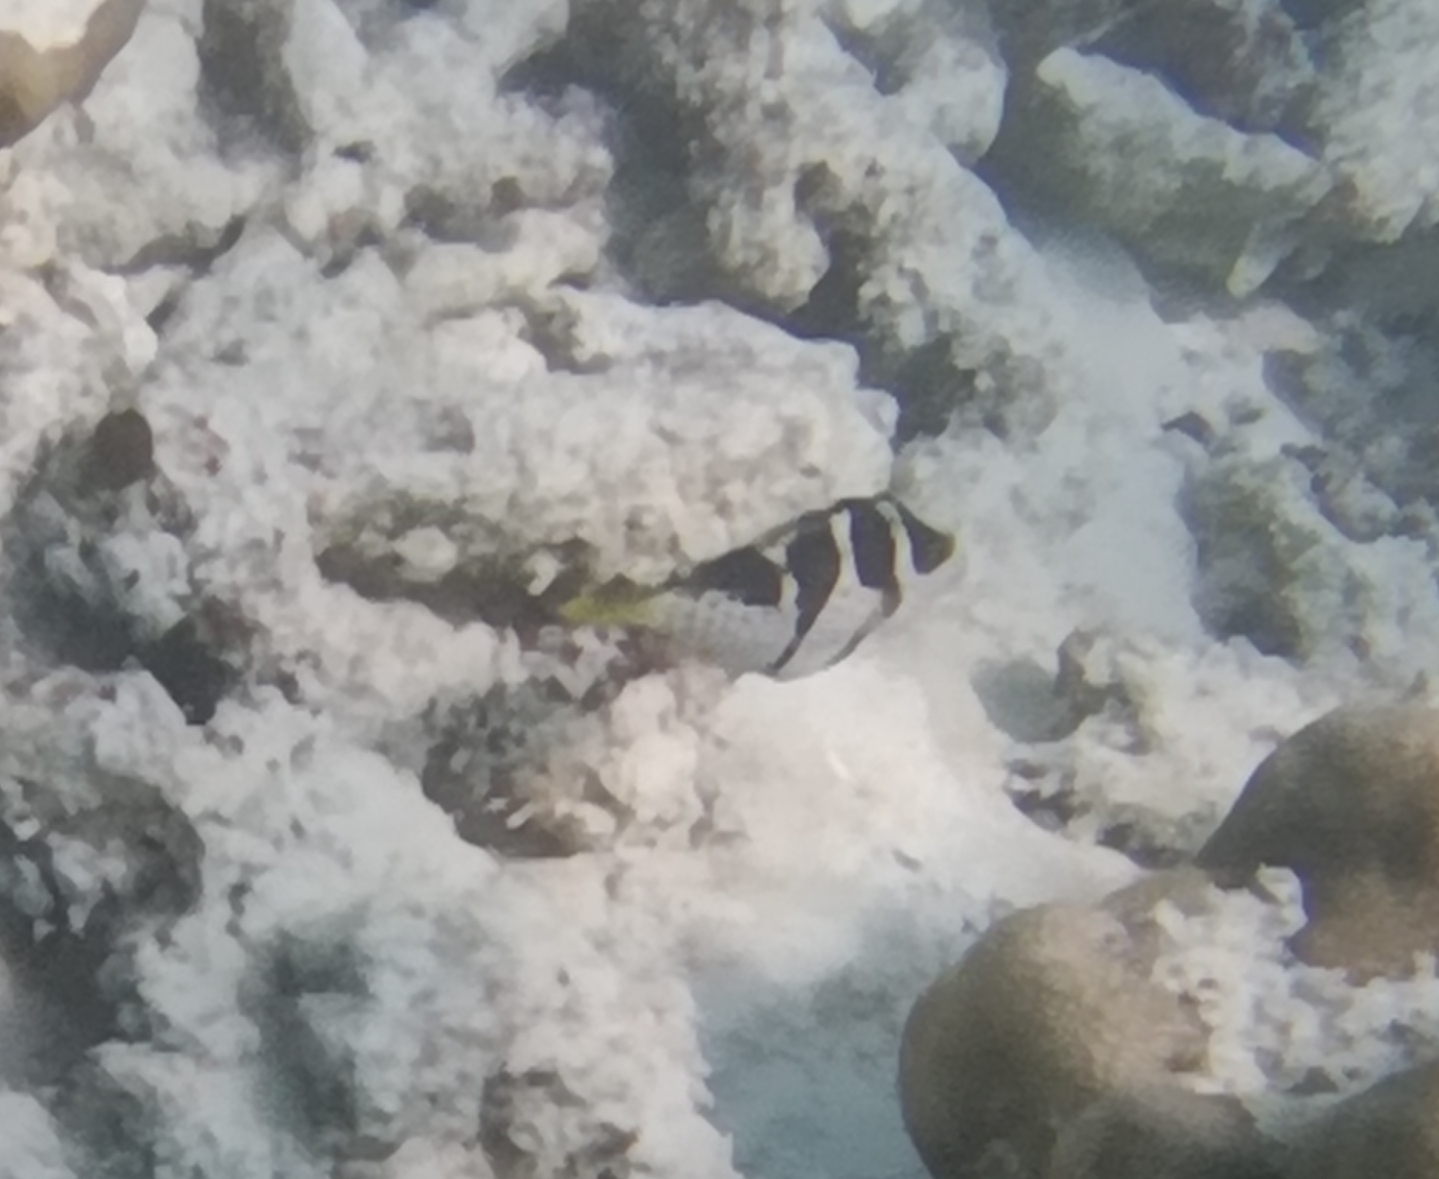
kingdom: Animalia
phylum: Chordata
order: Tetraodontiformes
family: Tetraodontidae
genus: Canthigaster
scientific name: Canthigaster valentini
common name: Banded toby
